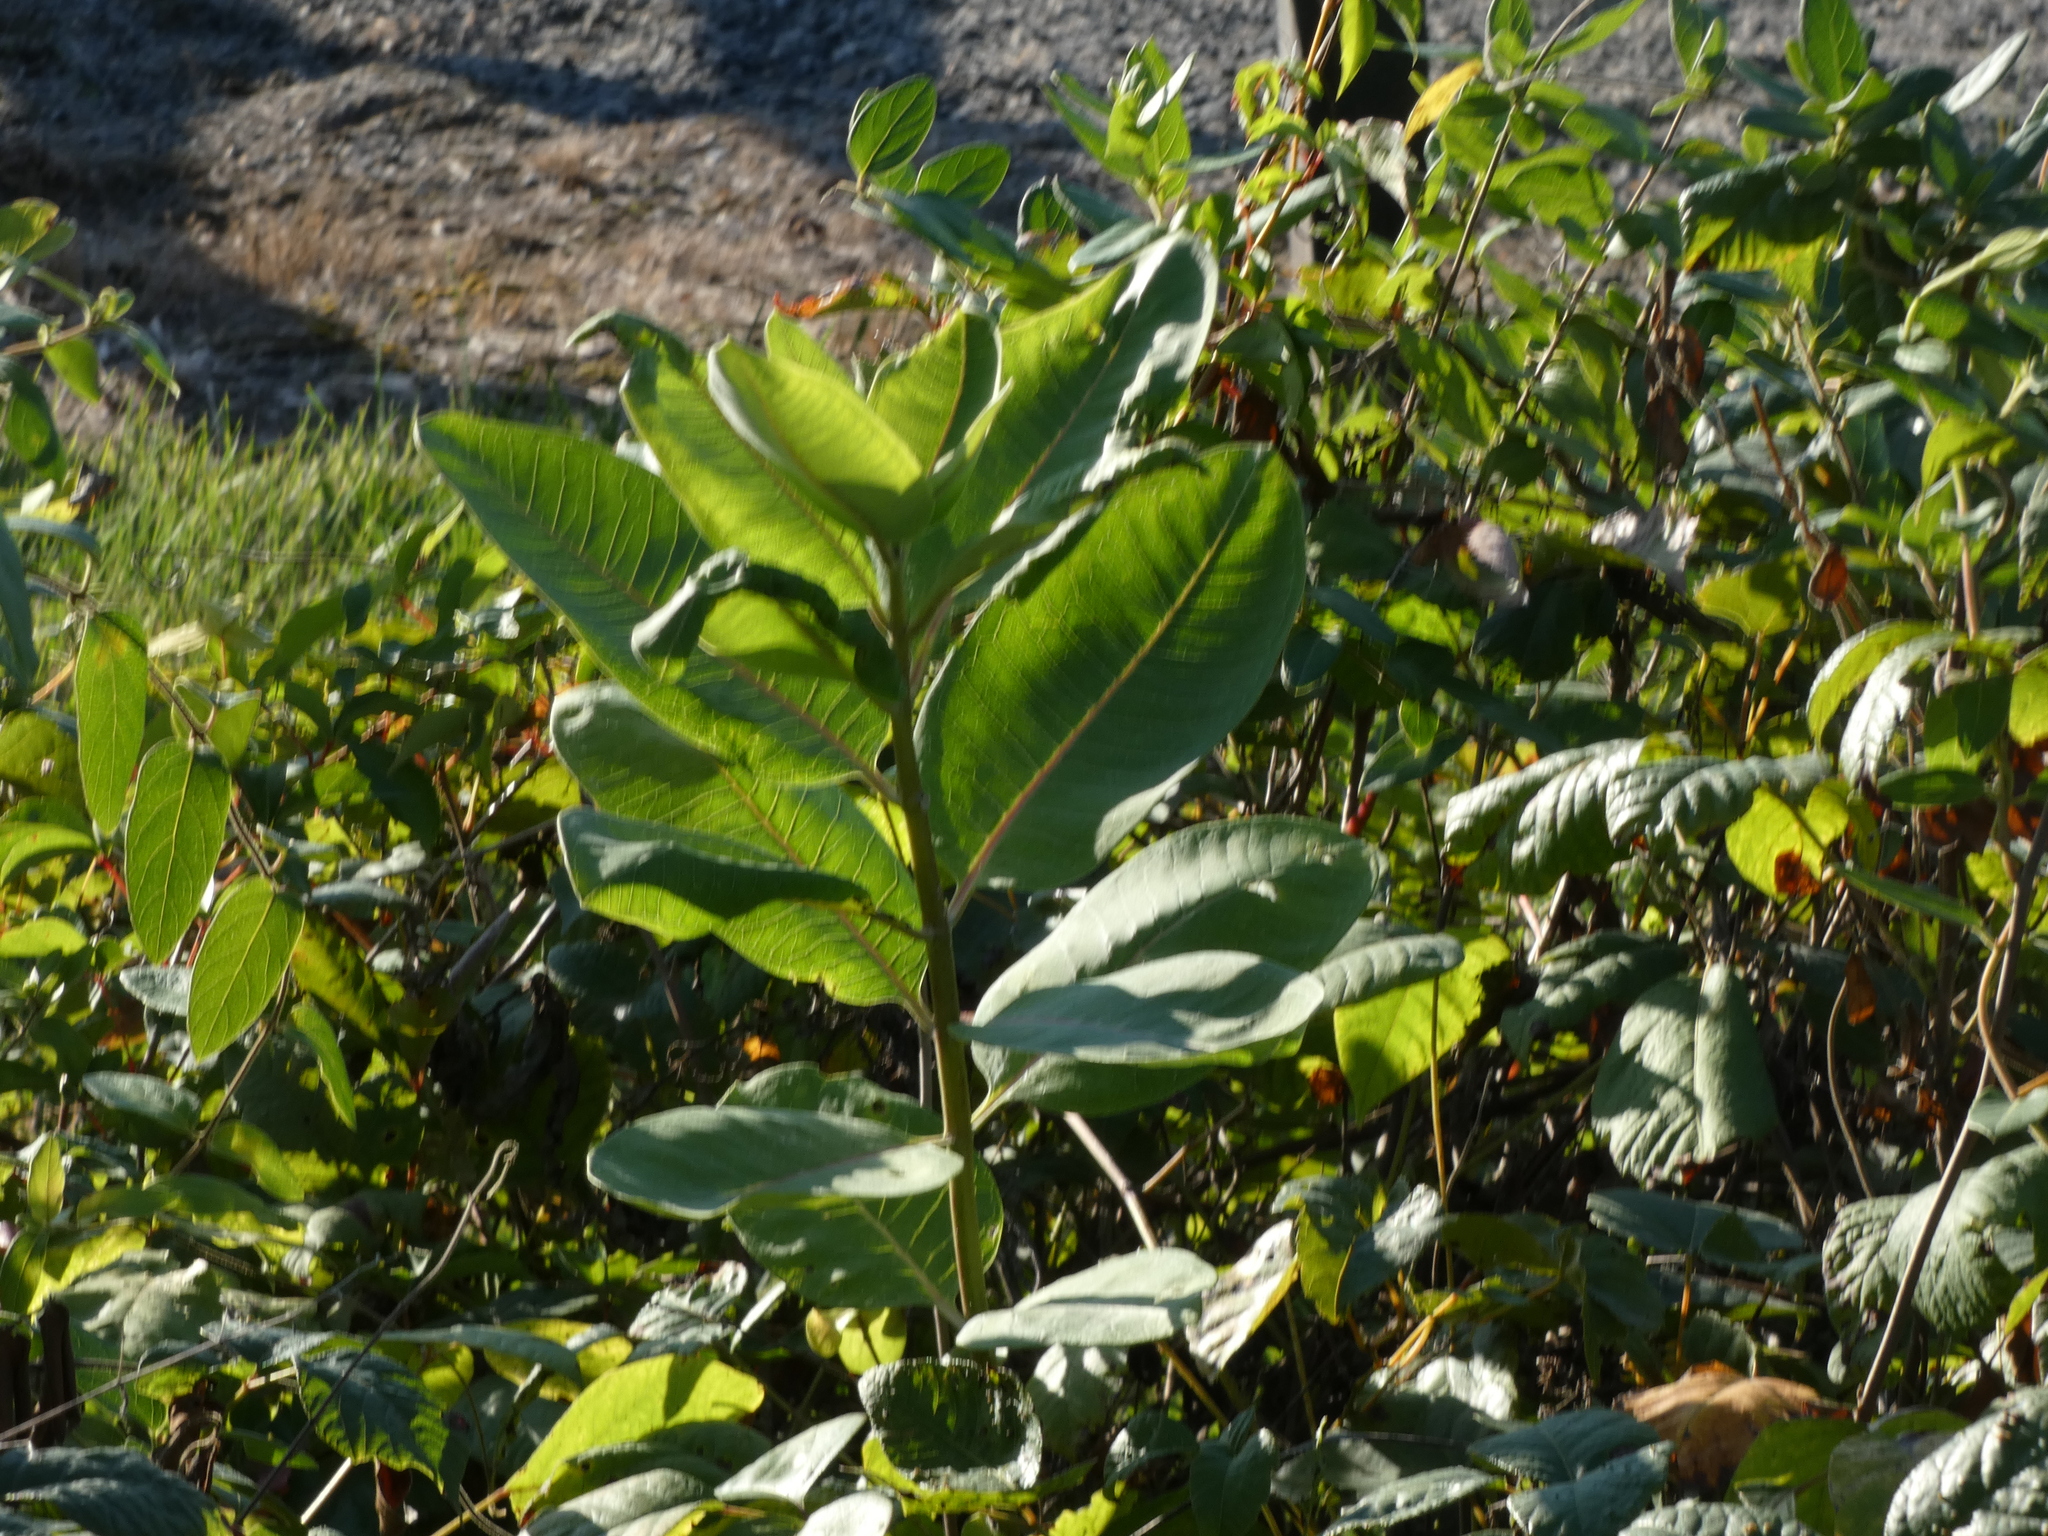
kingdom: Plantae
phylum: Tracheophyta
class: Magnoliopsida
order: Gentianales
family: Apocynaceae
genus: Asclepias
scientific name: Asclepias syriaca
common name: Common milkweed
